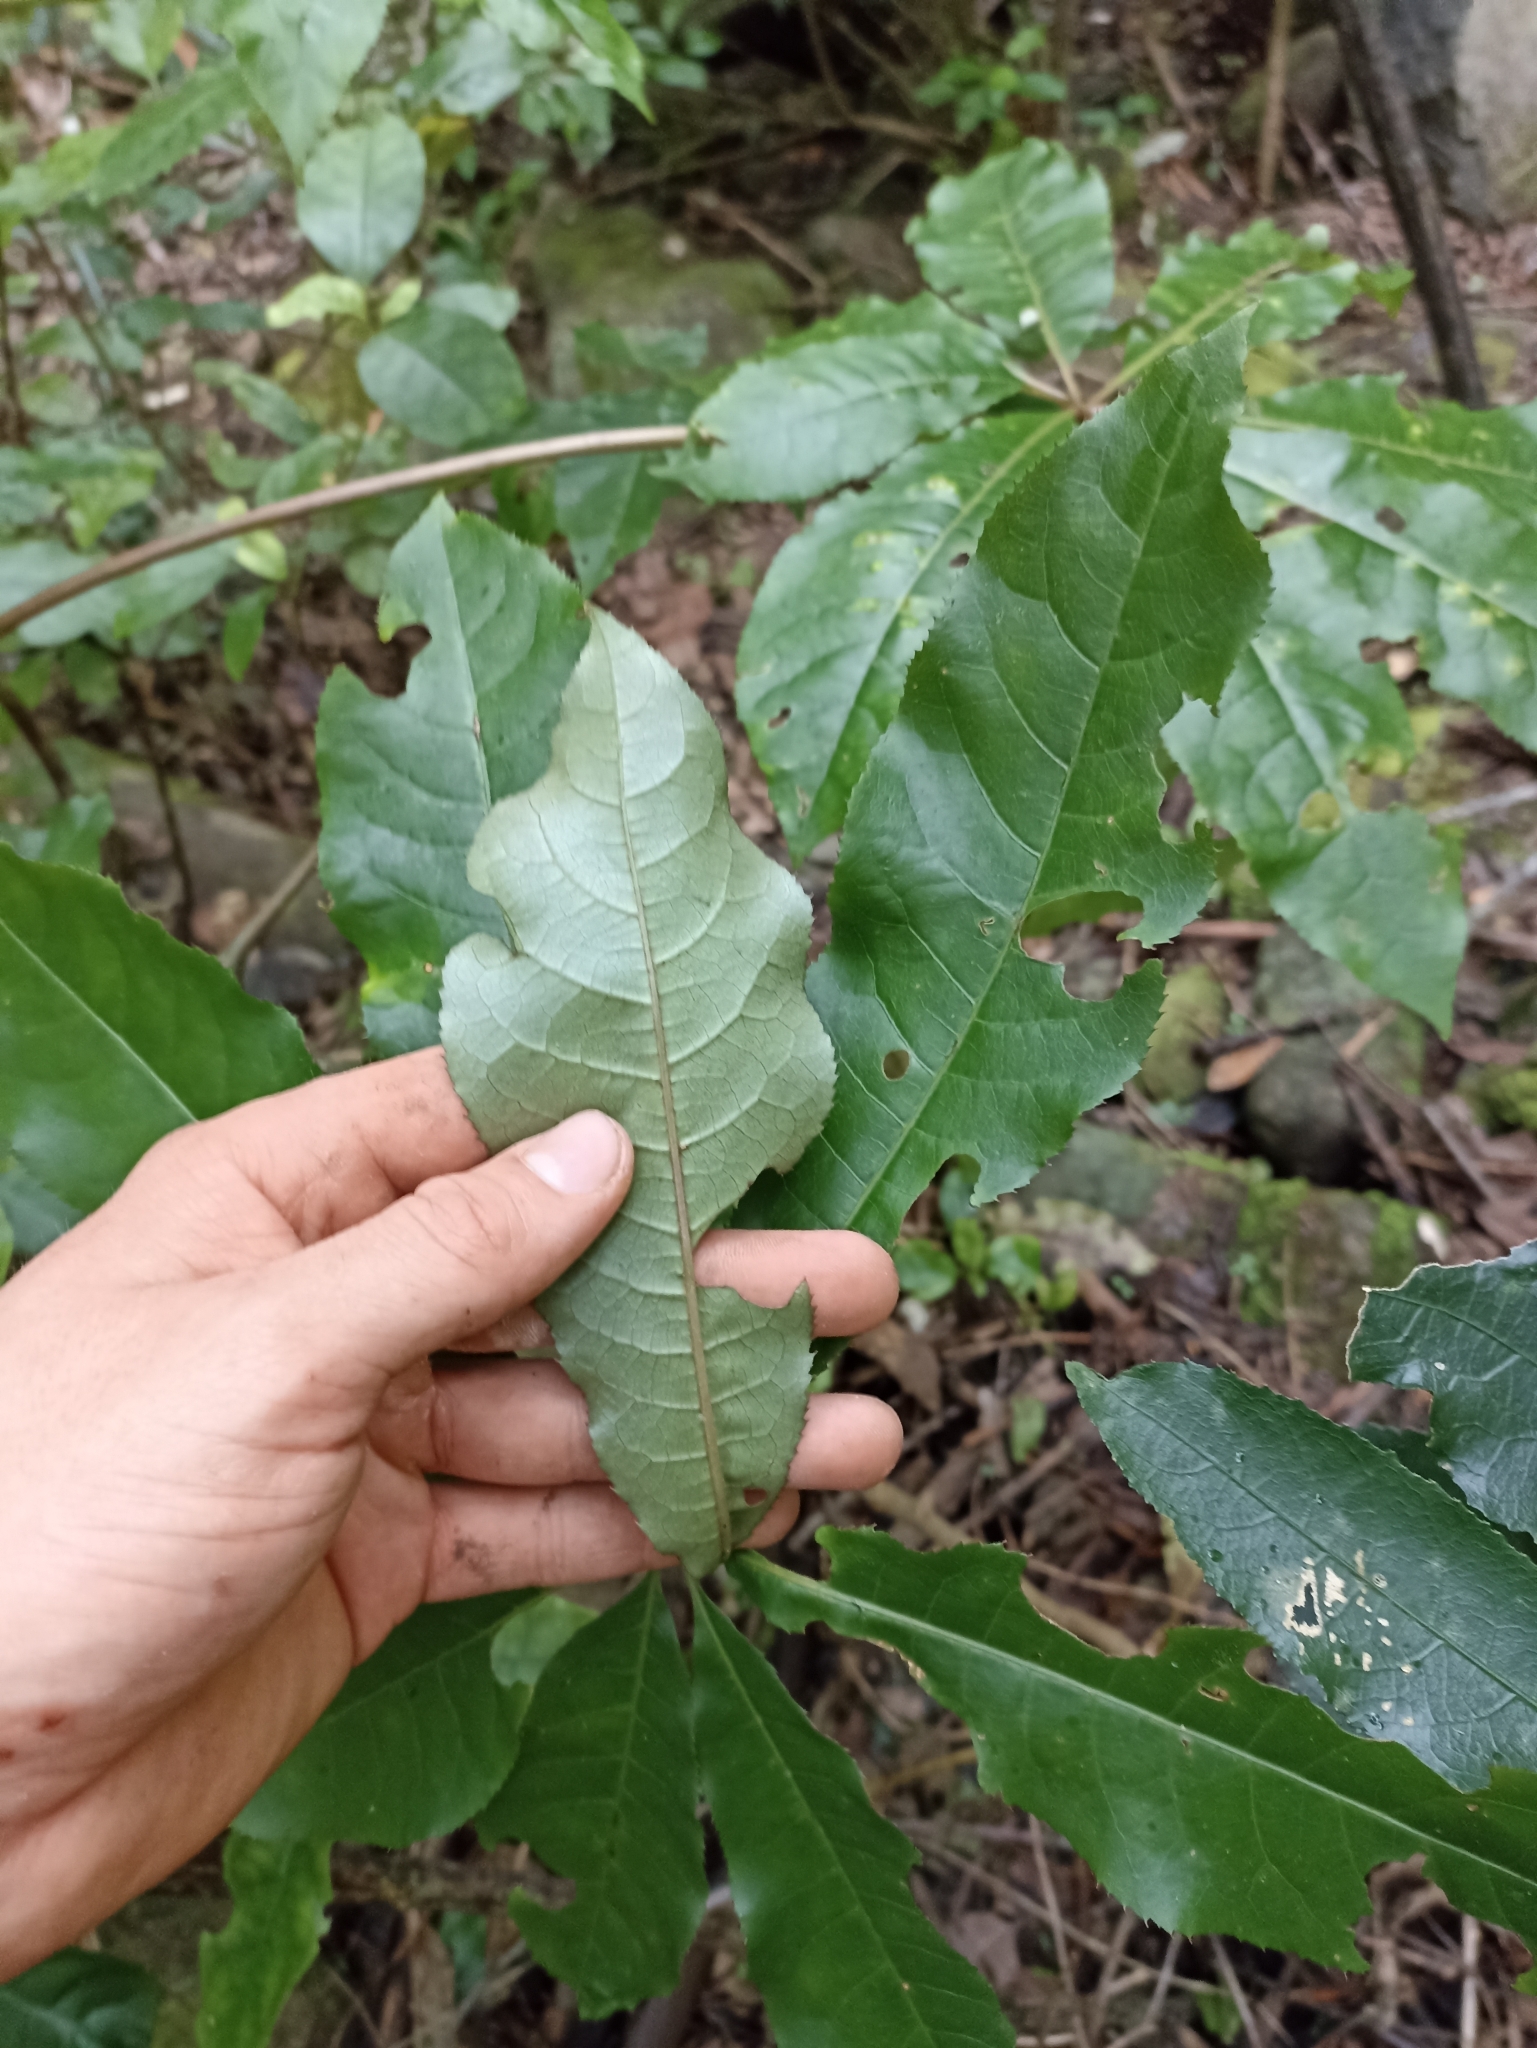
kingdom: Plantae
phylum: Tracheophyta
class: Magnoliopsida
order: Apiales
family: Araliaceae
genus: Schefflera
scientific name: Schefflera digitata
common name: Pate
